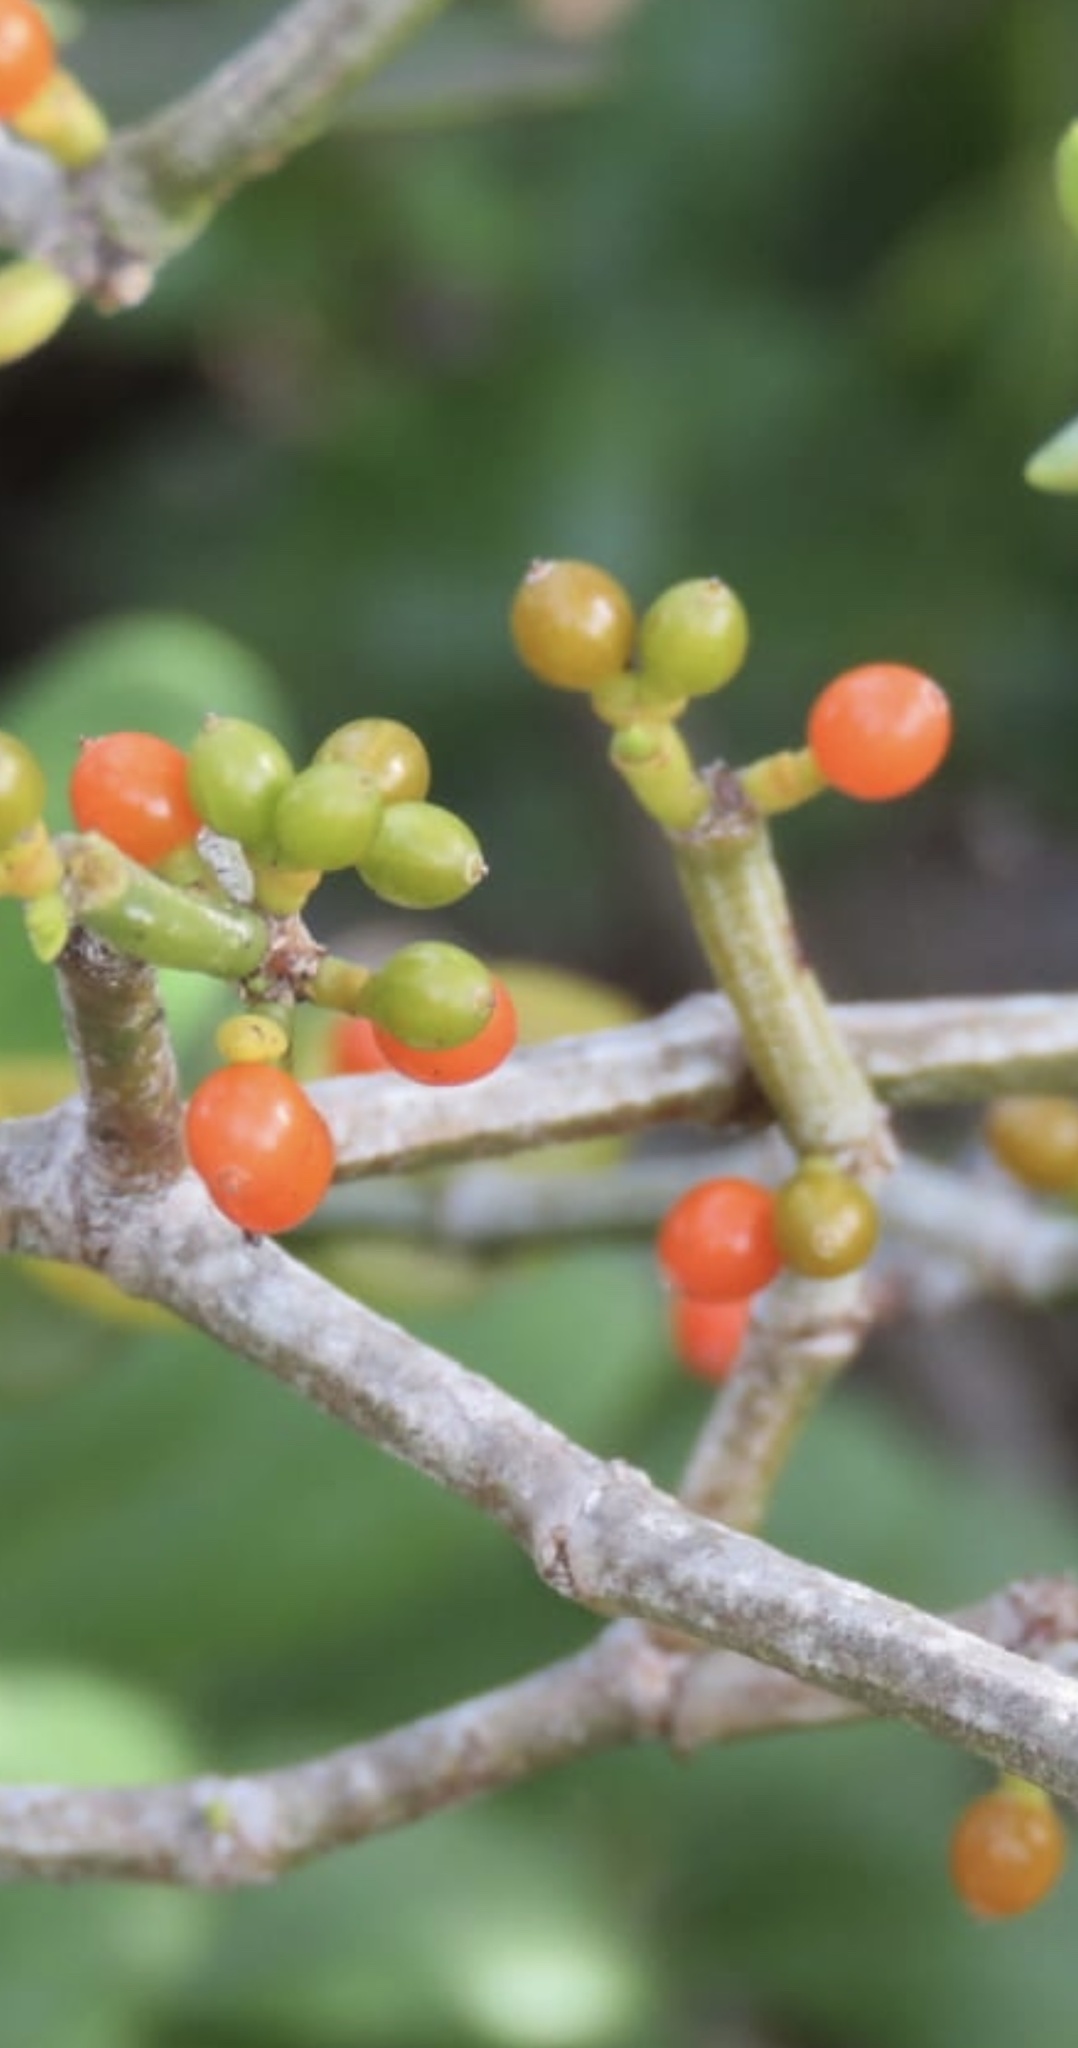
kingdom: Plantae
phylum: Tracheophyta
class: Magnoliopsida
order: Santalales
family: Viscaceae
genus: Viscum
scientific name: Viscum rotundifolium
